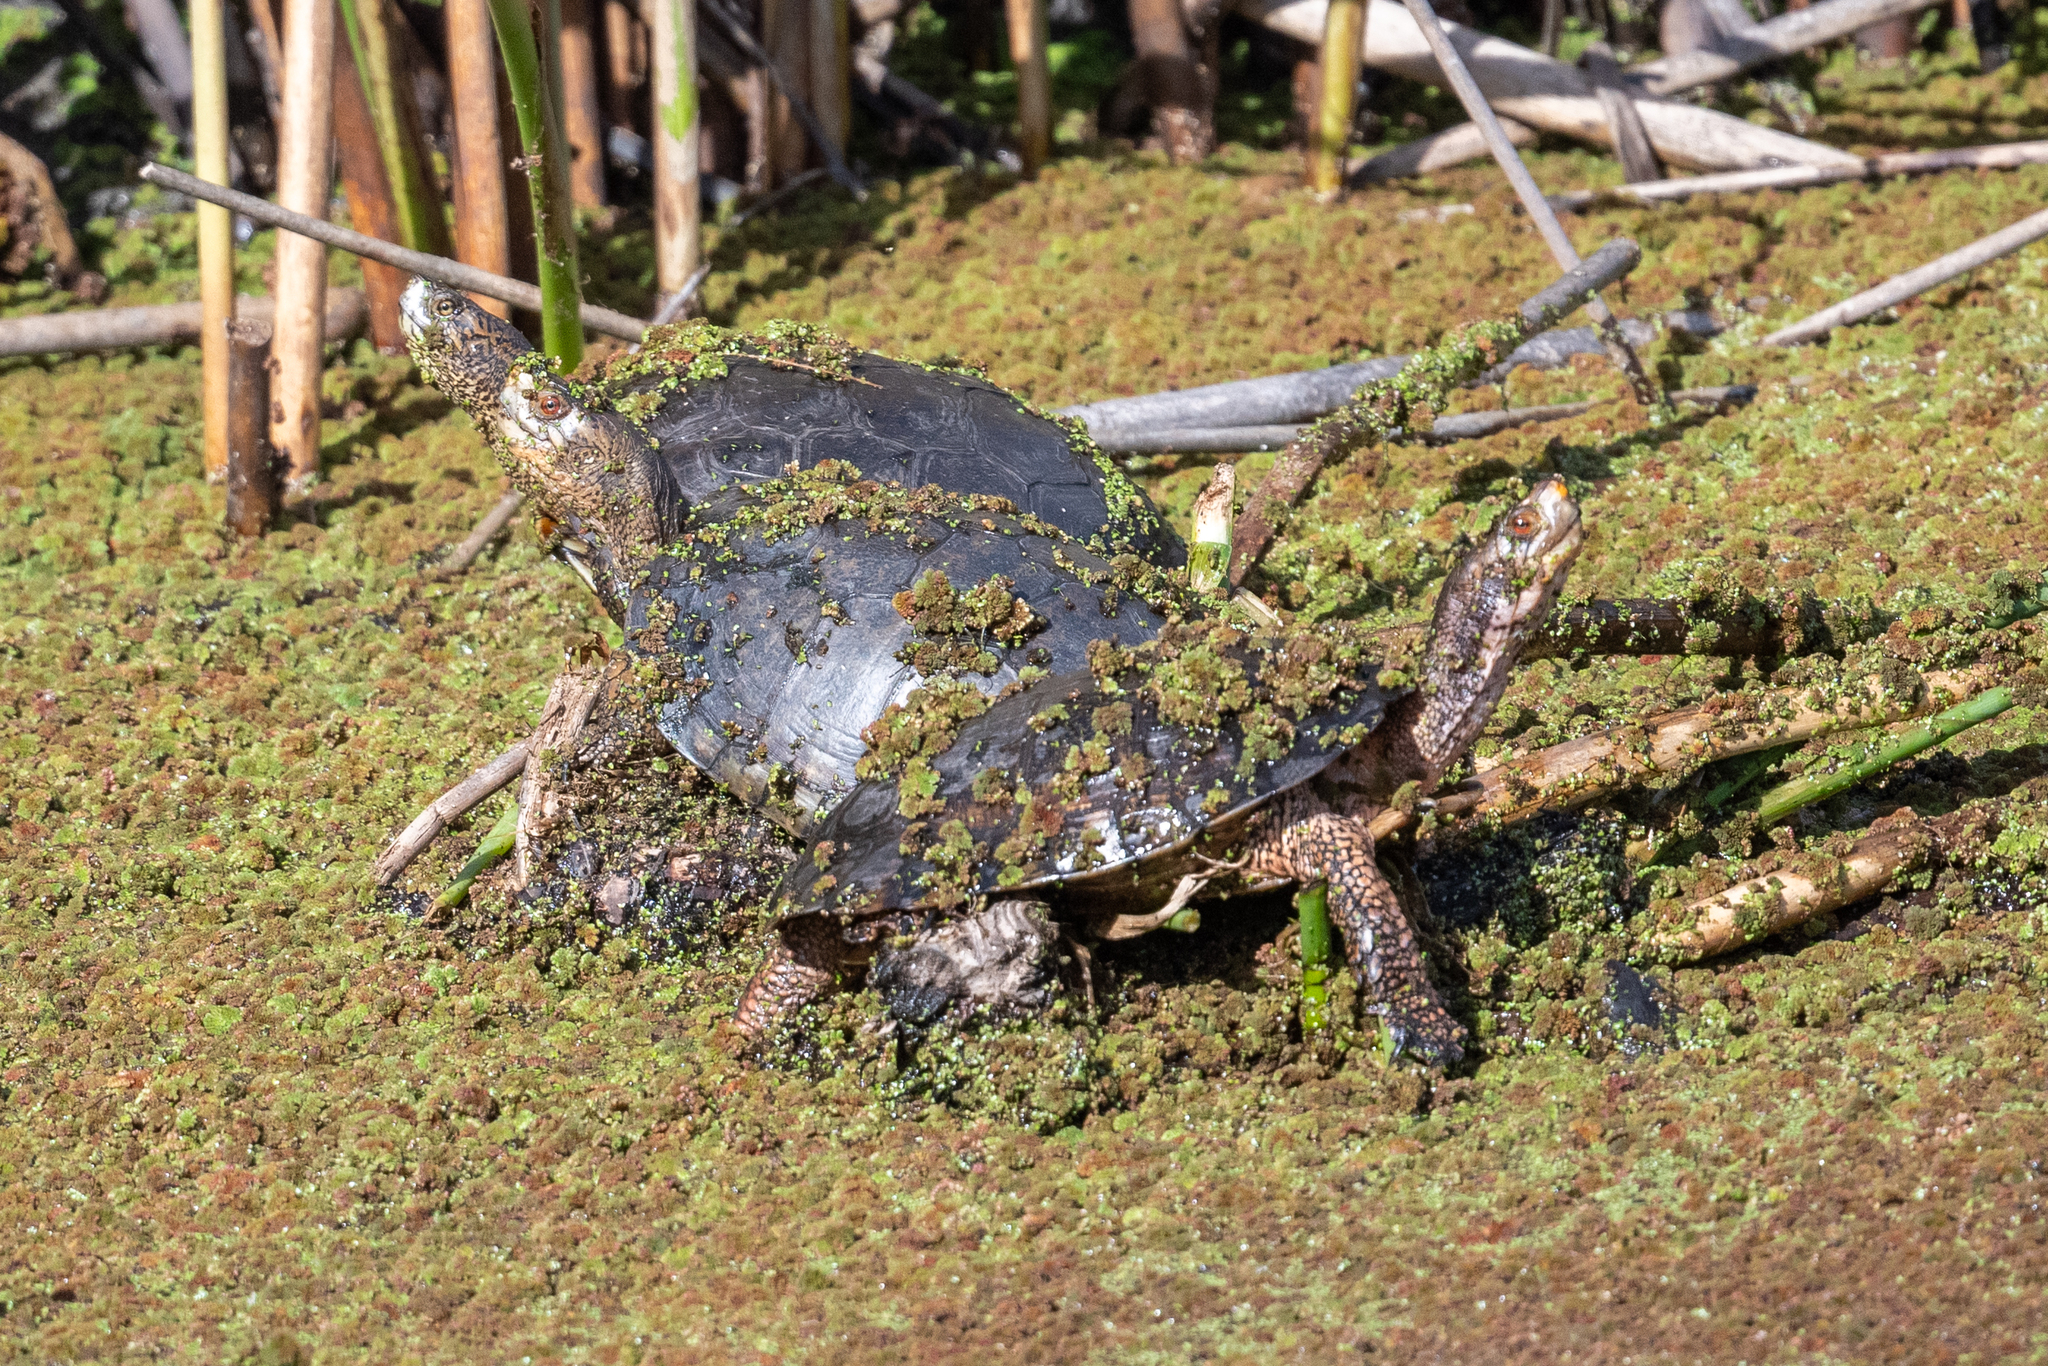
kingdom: Animalia
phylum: Chordata
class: Testudines
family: Emydidae
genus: Actinemys
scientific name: Actinemys marmorata
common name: Western pond turtle
